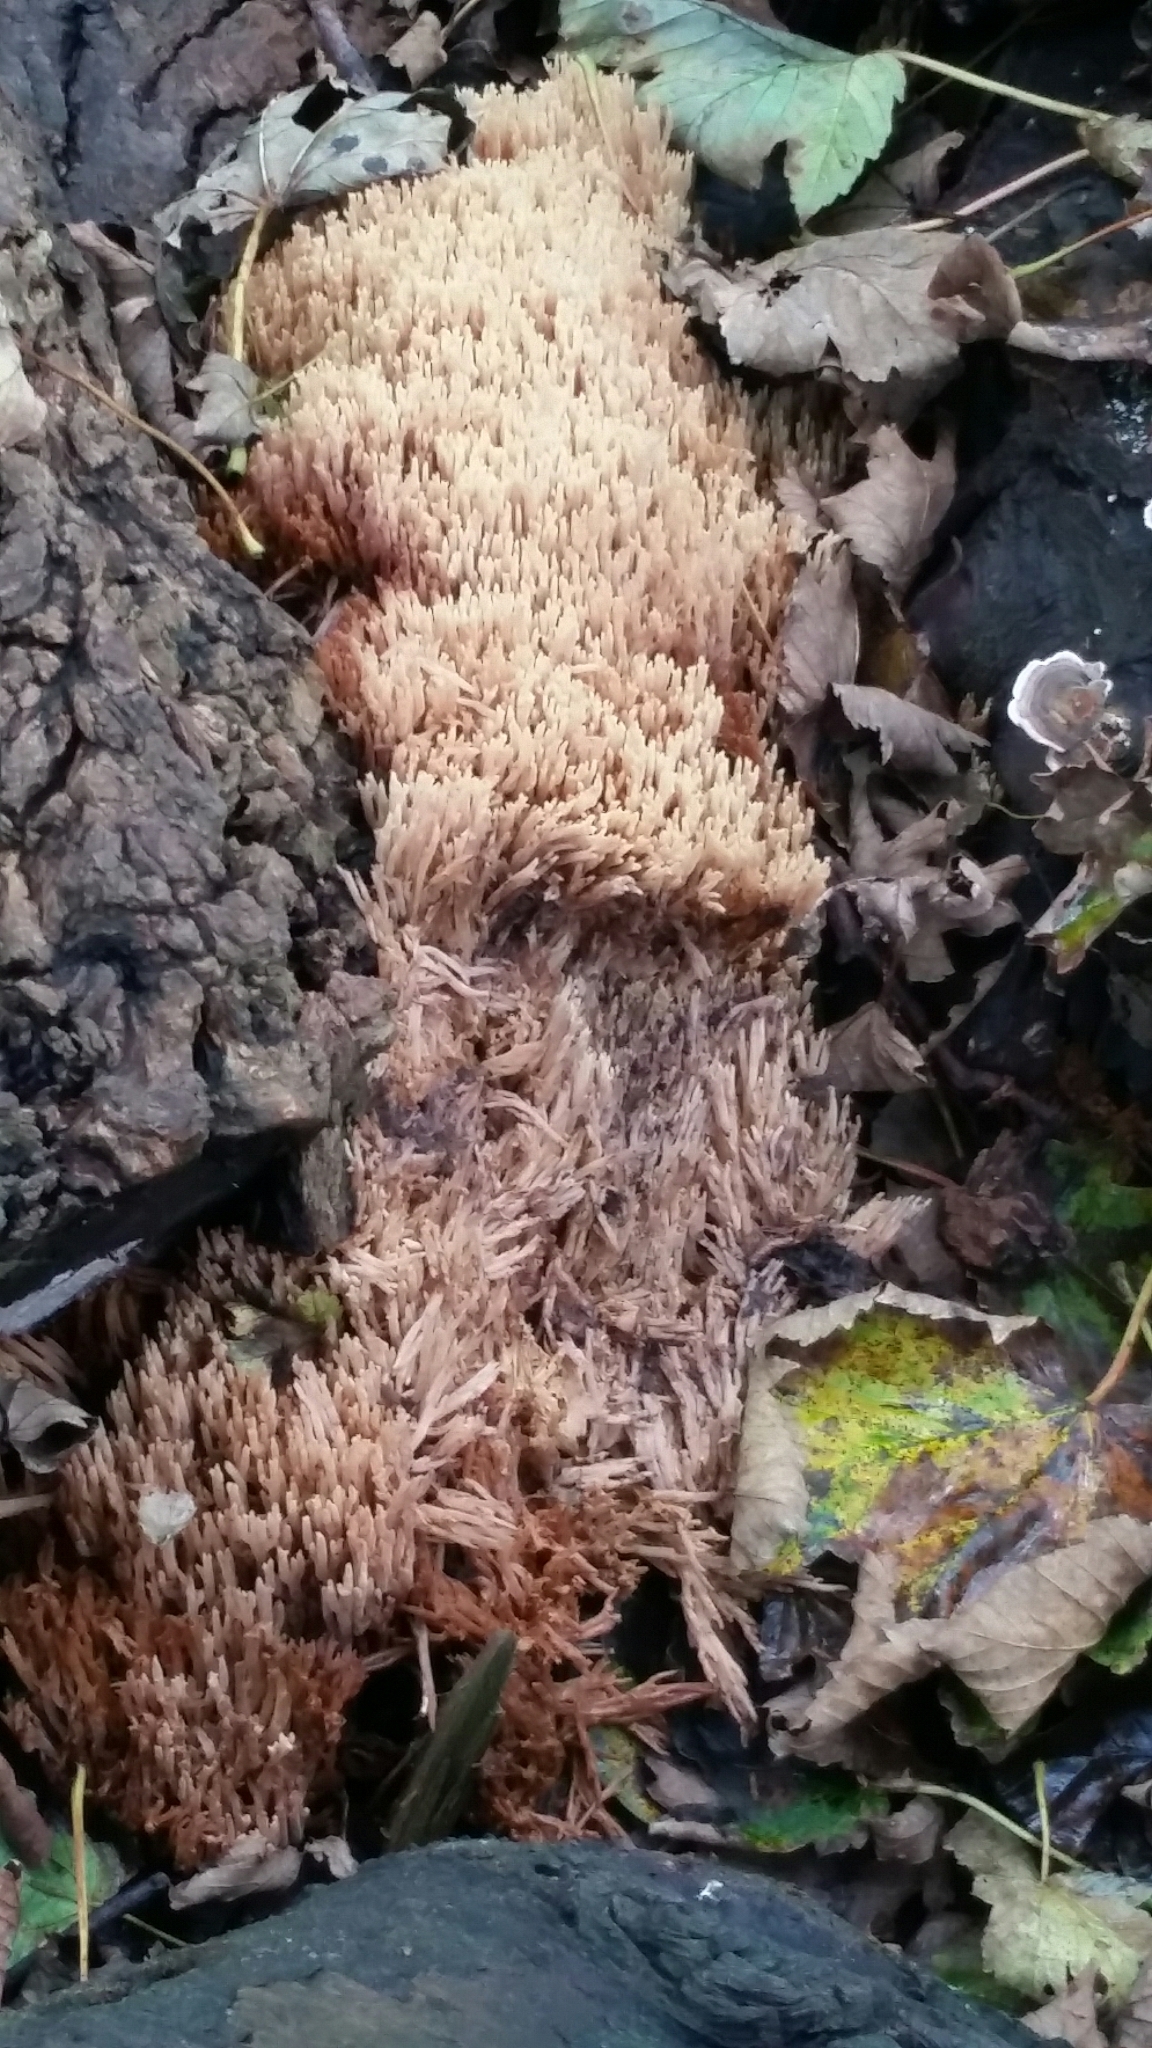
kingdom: Fungi
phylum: Basidiomycota
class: Agaricomycetes
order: Gomphales
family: Gomphaceae
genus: Ramaria
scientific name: Ramaria
